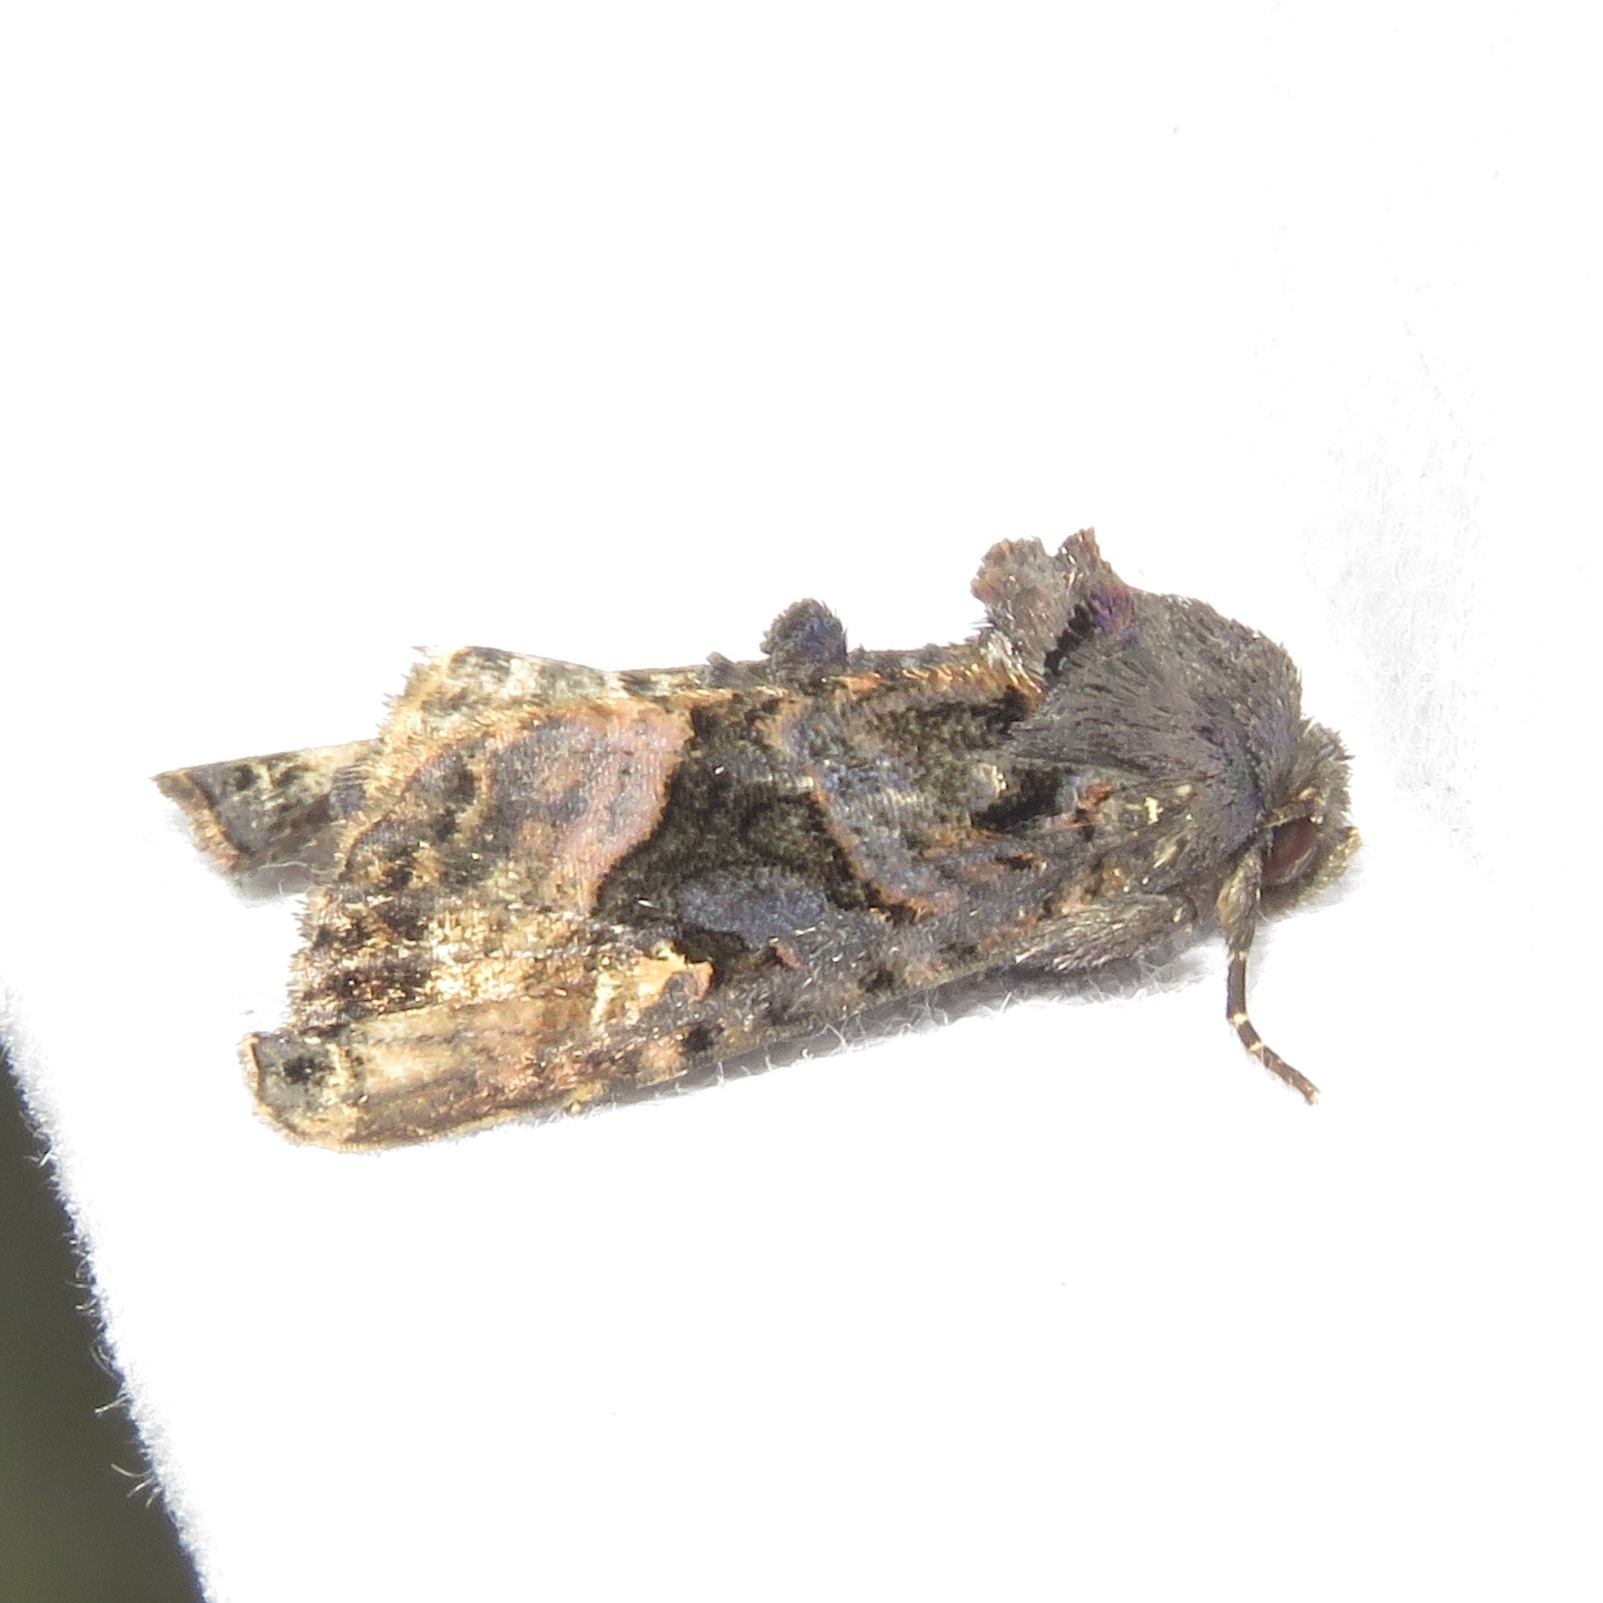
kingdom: Animalia
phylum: Arthropoda
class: Insecta
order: Lepidoptera
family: Noctuidae
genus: Euplexia
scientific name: Euplexia benesimilis
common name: American angle shades
